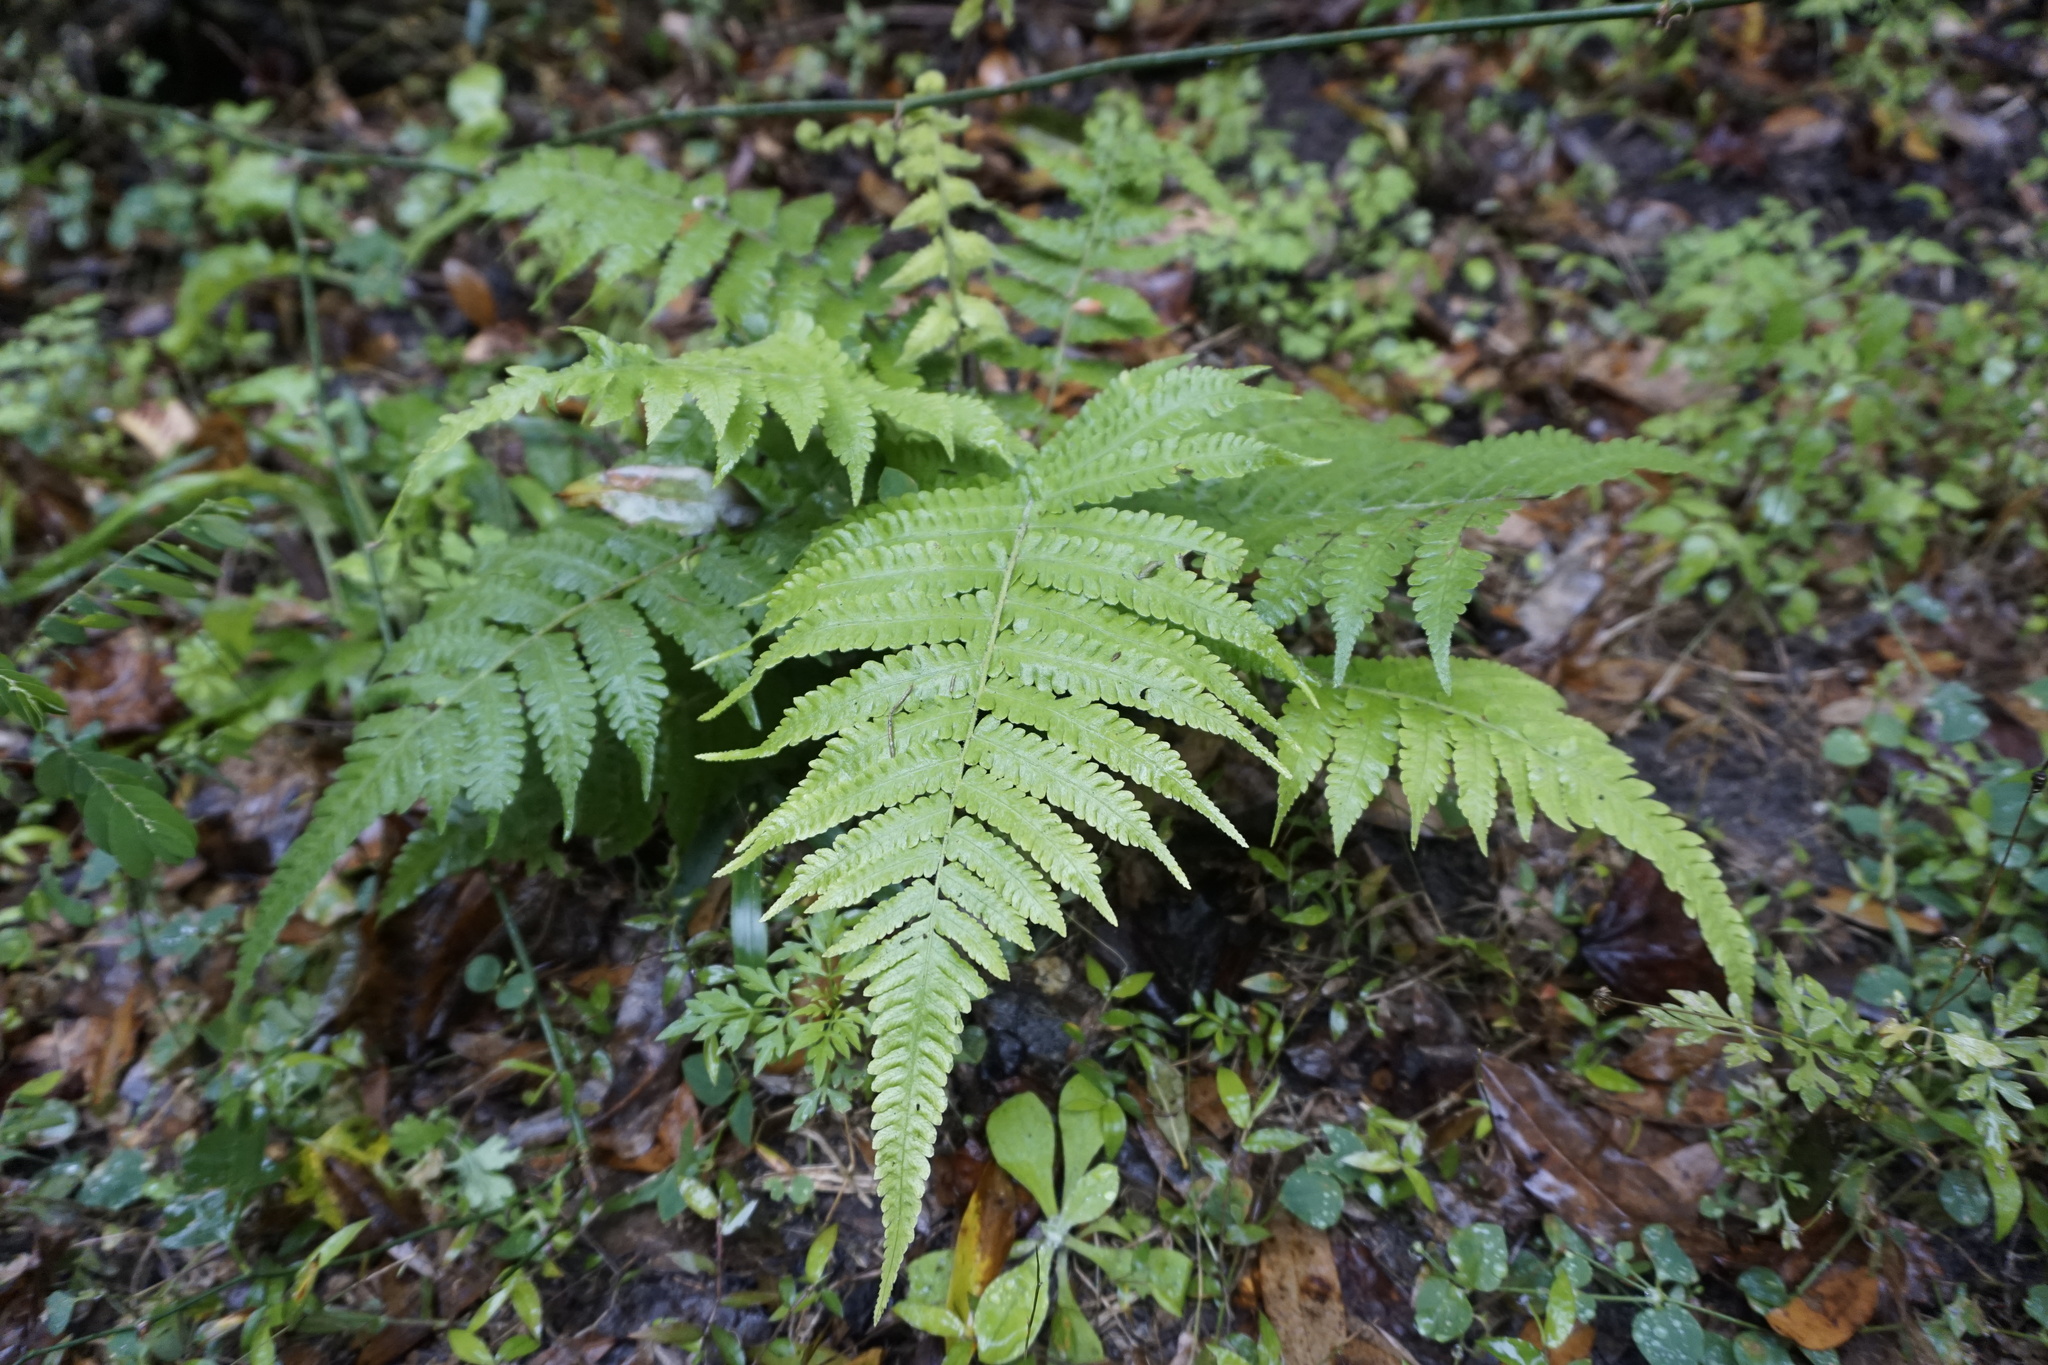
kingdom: Plantae
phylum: Tracheophyta
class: Polypodiopsida
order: Polypodiales
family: Thelypteridaceae
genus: Christella
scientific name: Christella dentata
